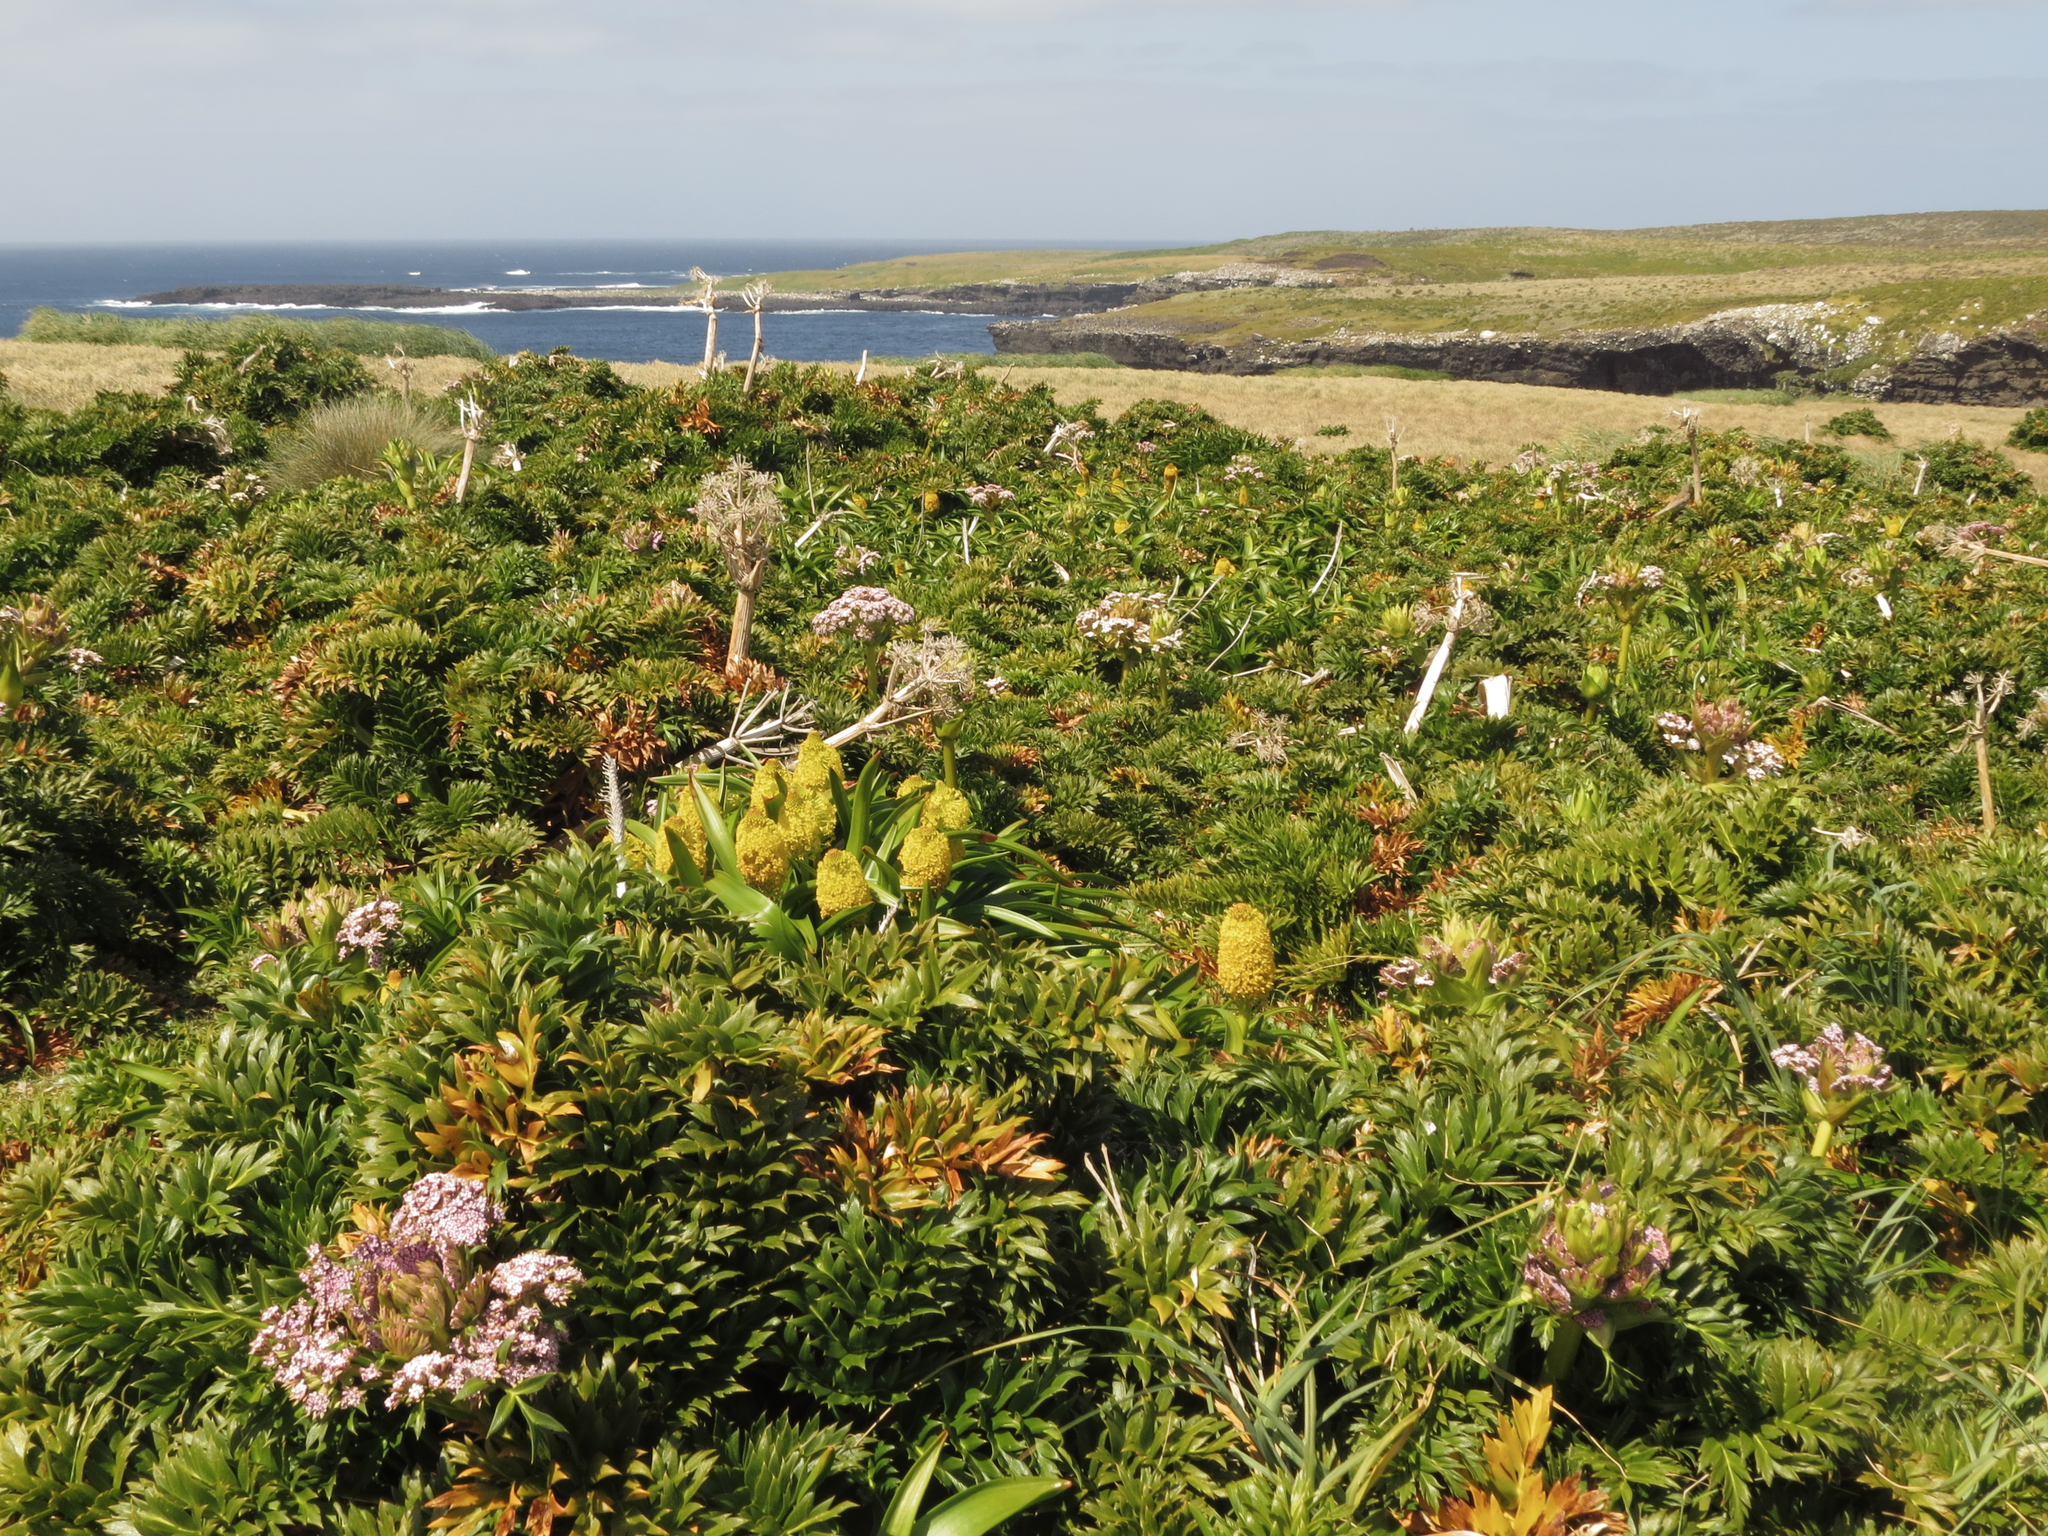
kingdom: Plantae
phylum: Tracheophyta
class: Magnoliopsida
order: Apiales
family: Apiaceae
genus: Anisotome
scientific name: Anisotome latifolia
